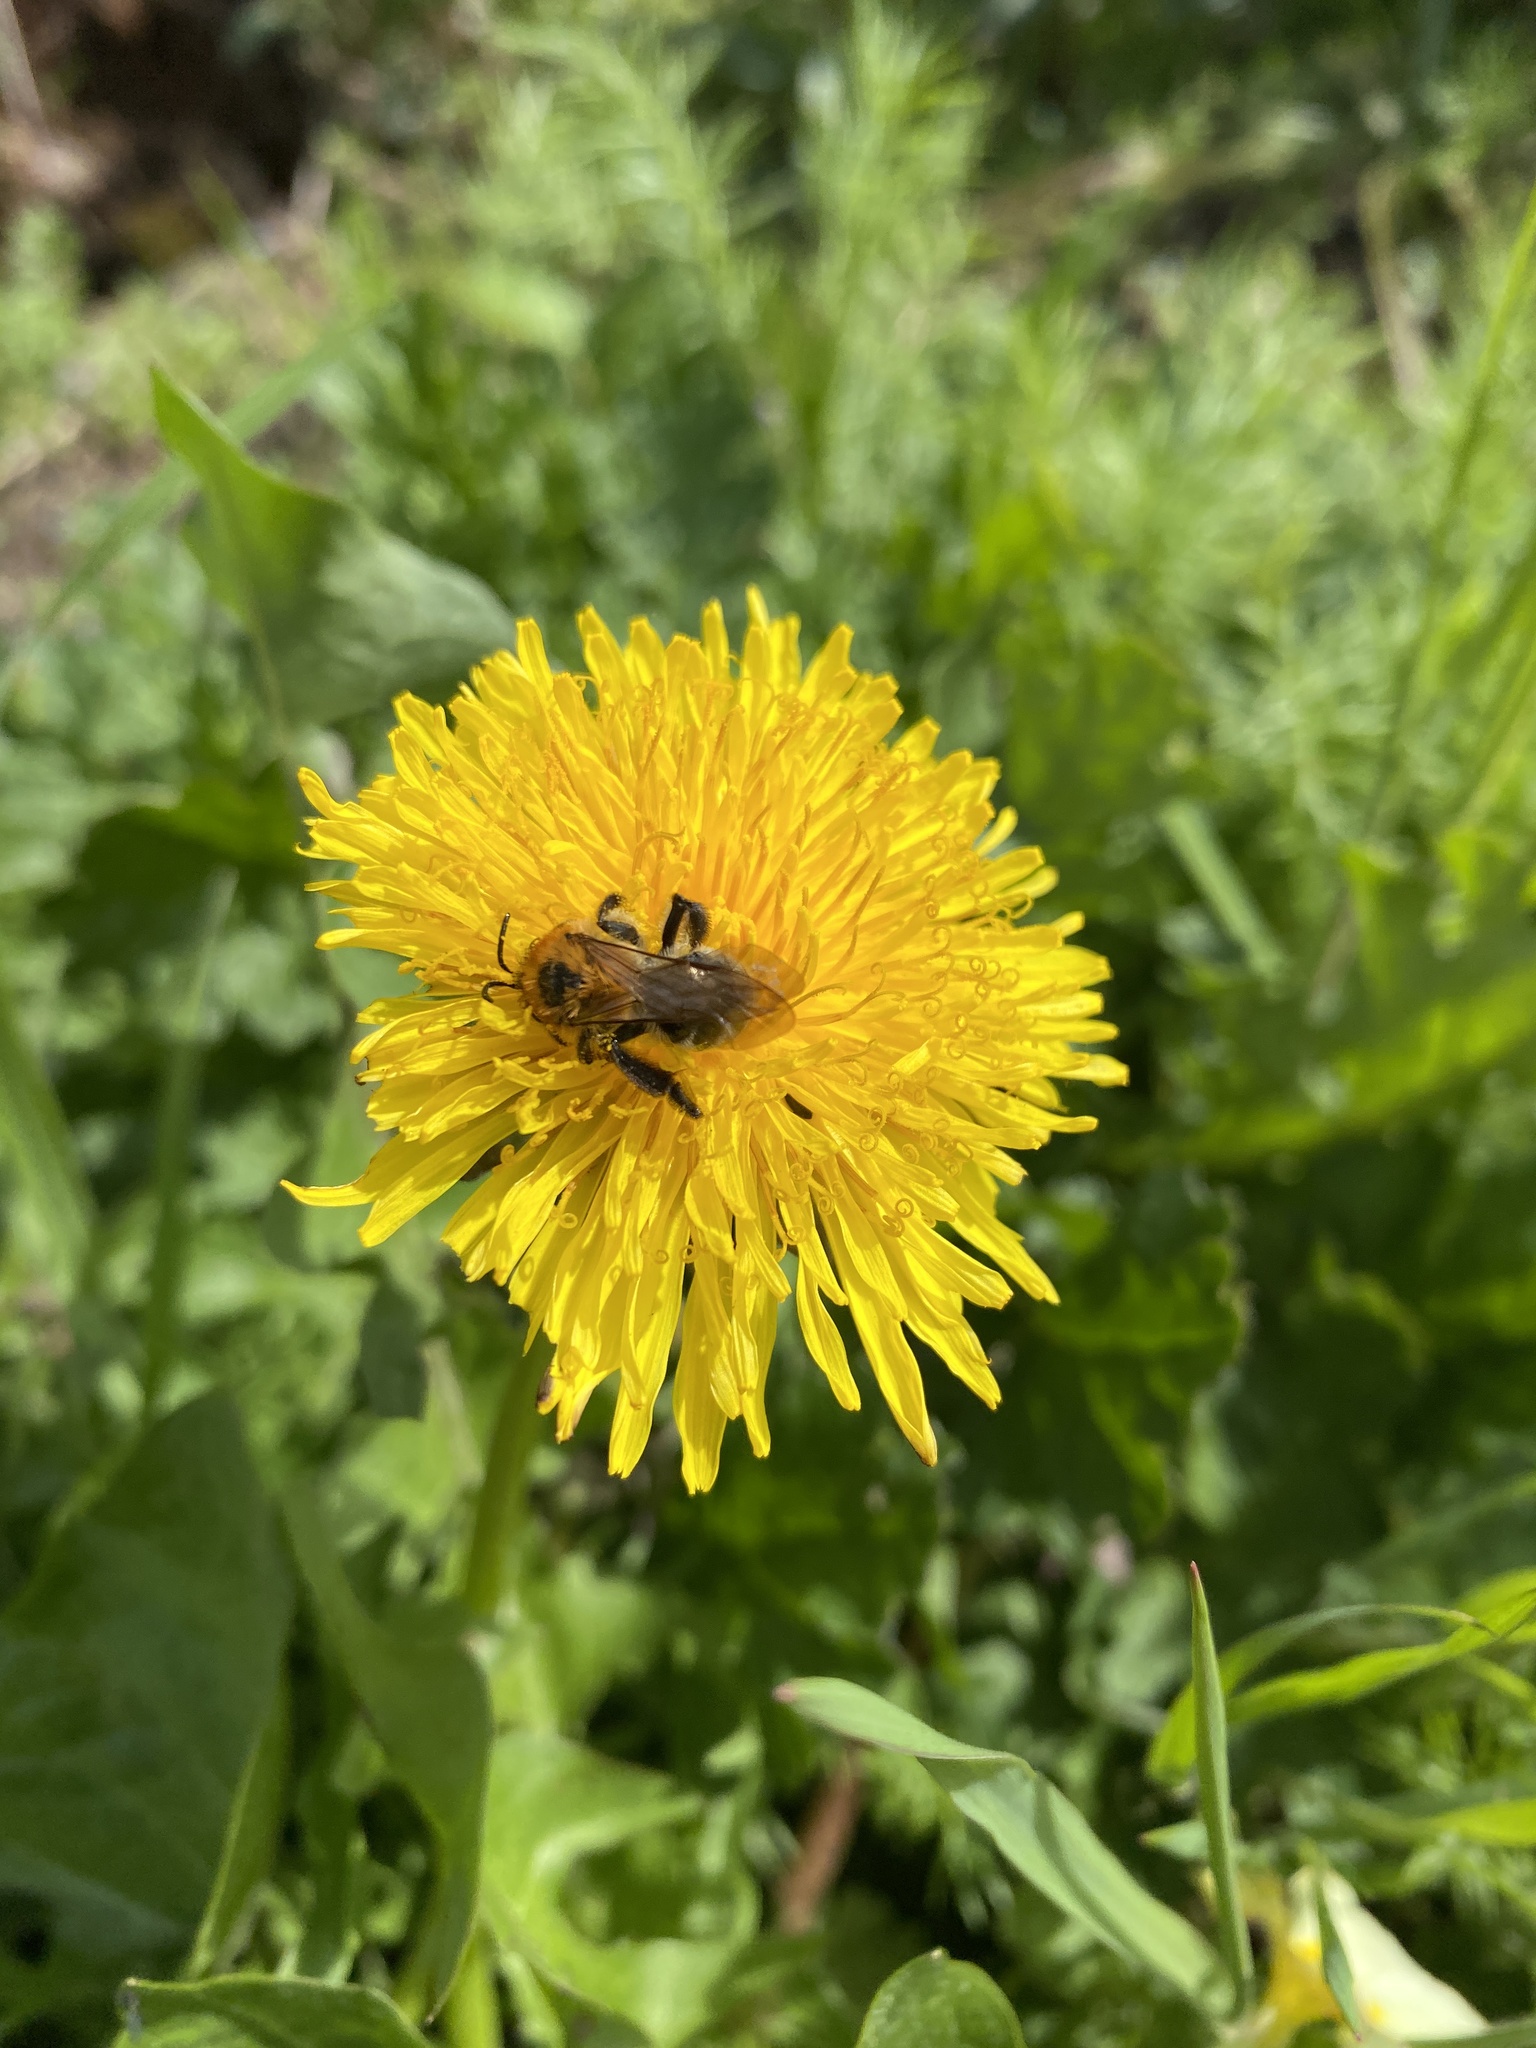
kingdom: Animalia
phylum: Arthropoda
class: Insecta
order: Hymenoptera
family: Andrenidae
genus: Andrena
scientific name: Andrena nitida
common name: Grey-patched mining bee
